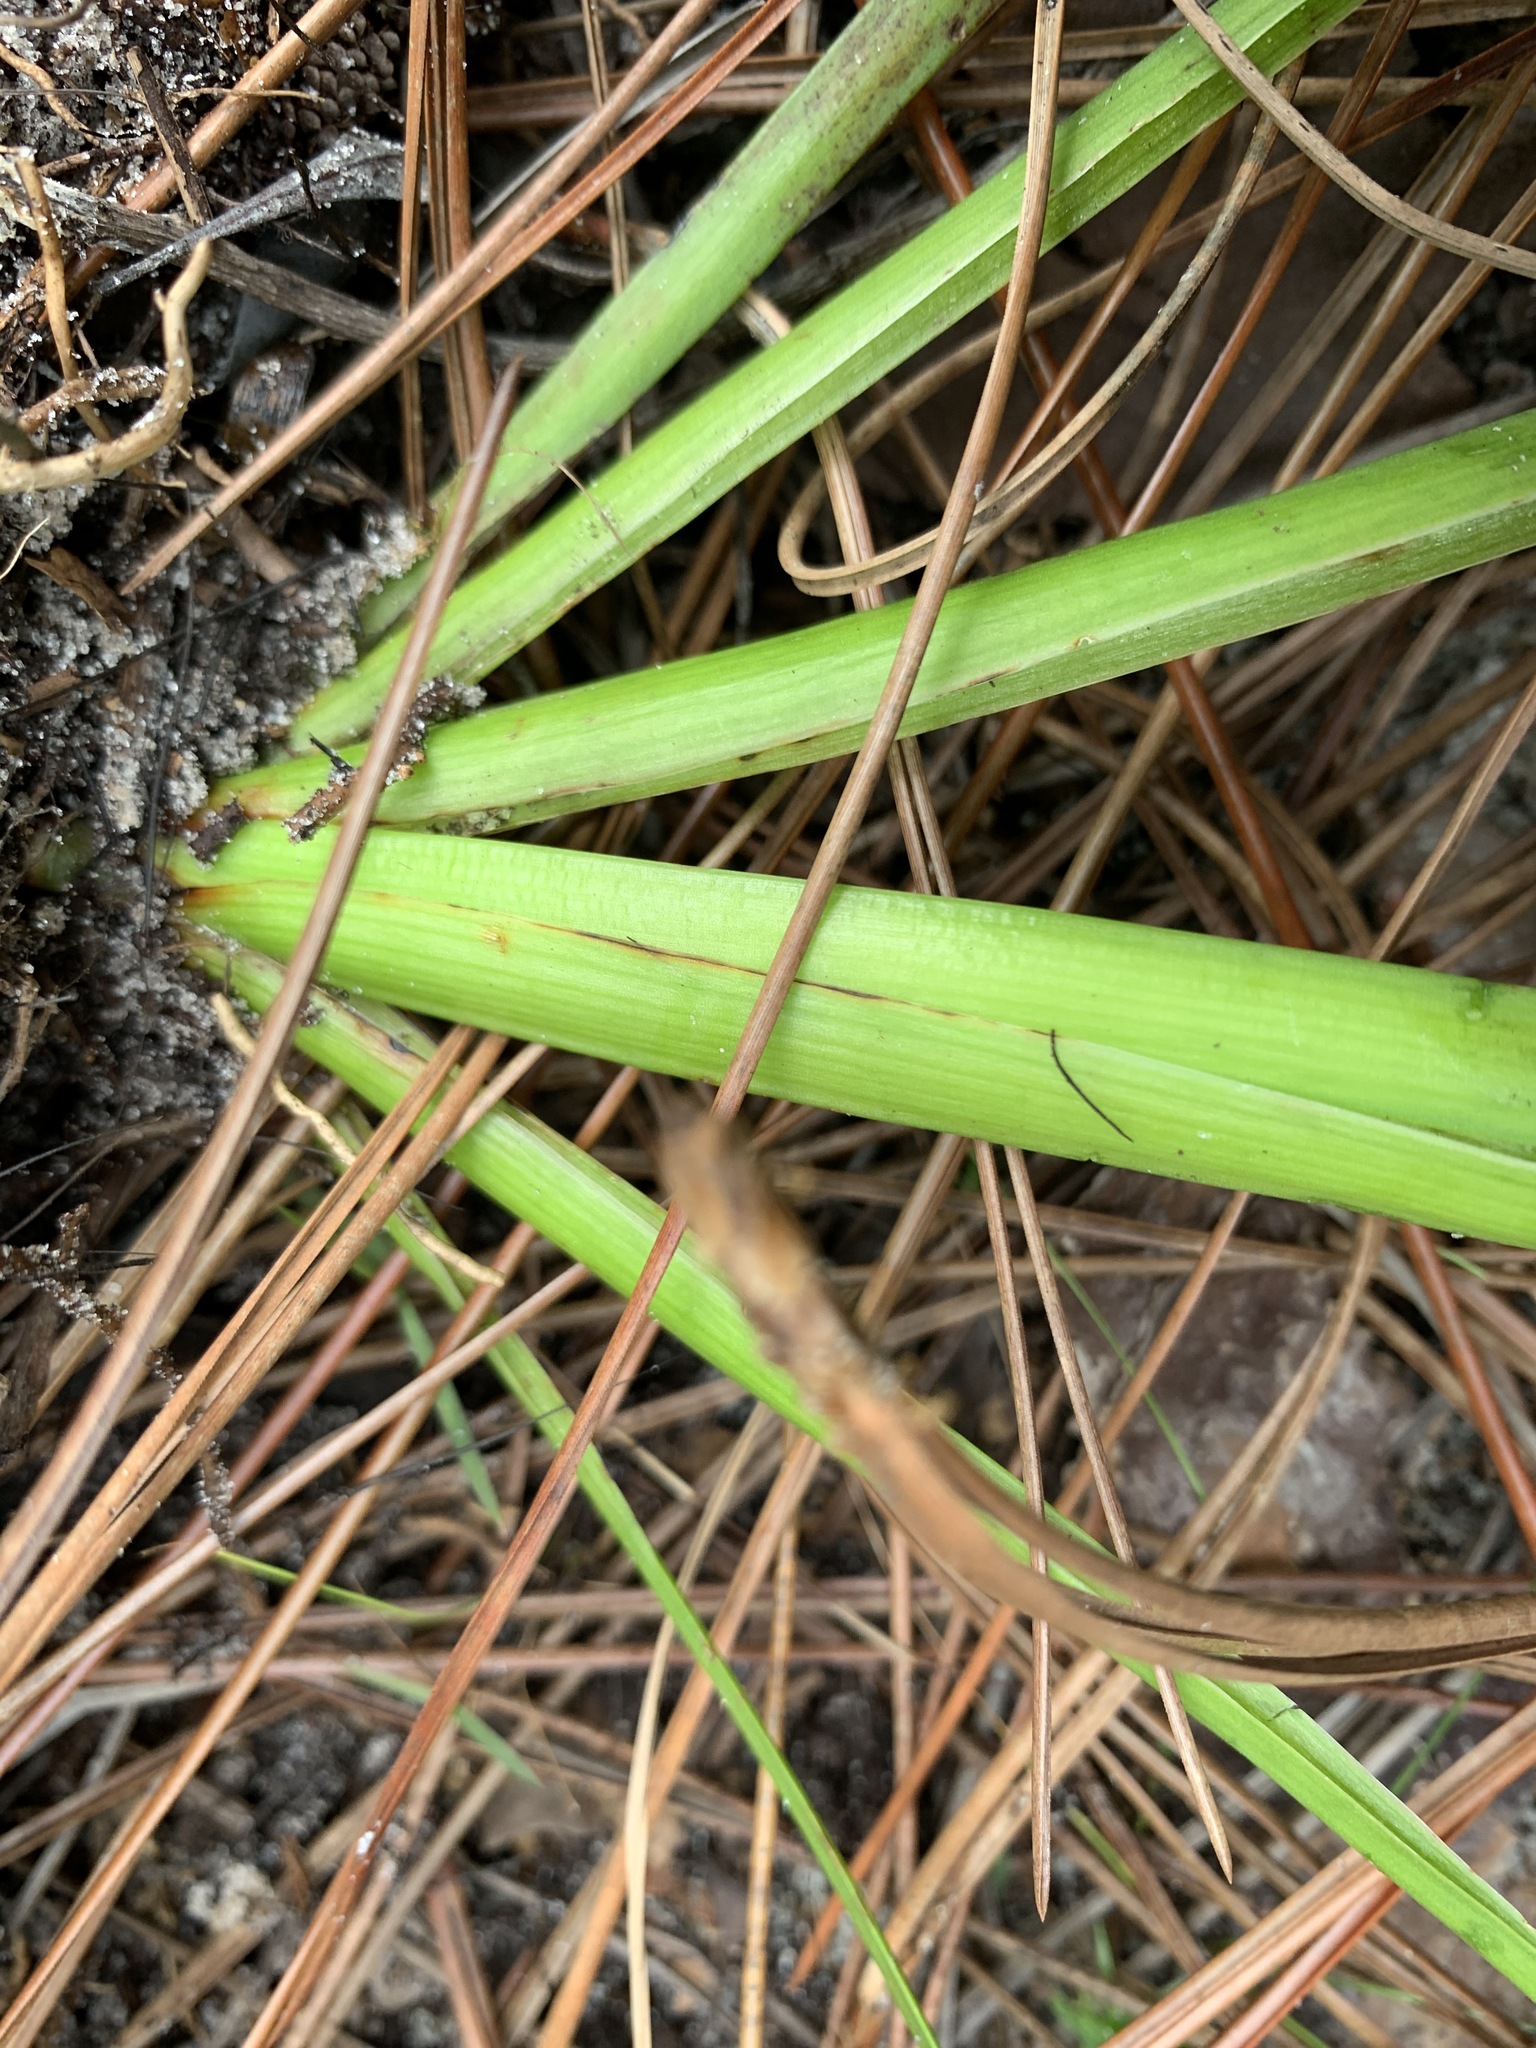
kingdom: Plantae
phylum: Tracheophyta
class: Liliopsida
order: Commelinales
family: Haemodoraceae
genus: Lachnanthes
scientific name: Lachnanthes caroliana
